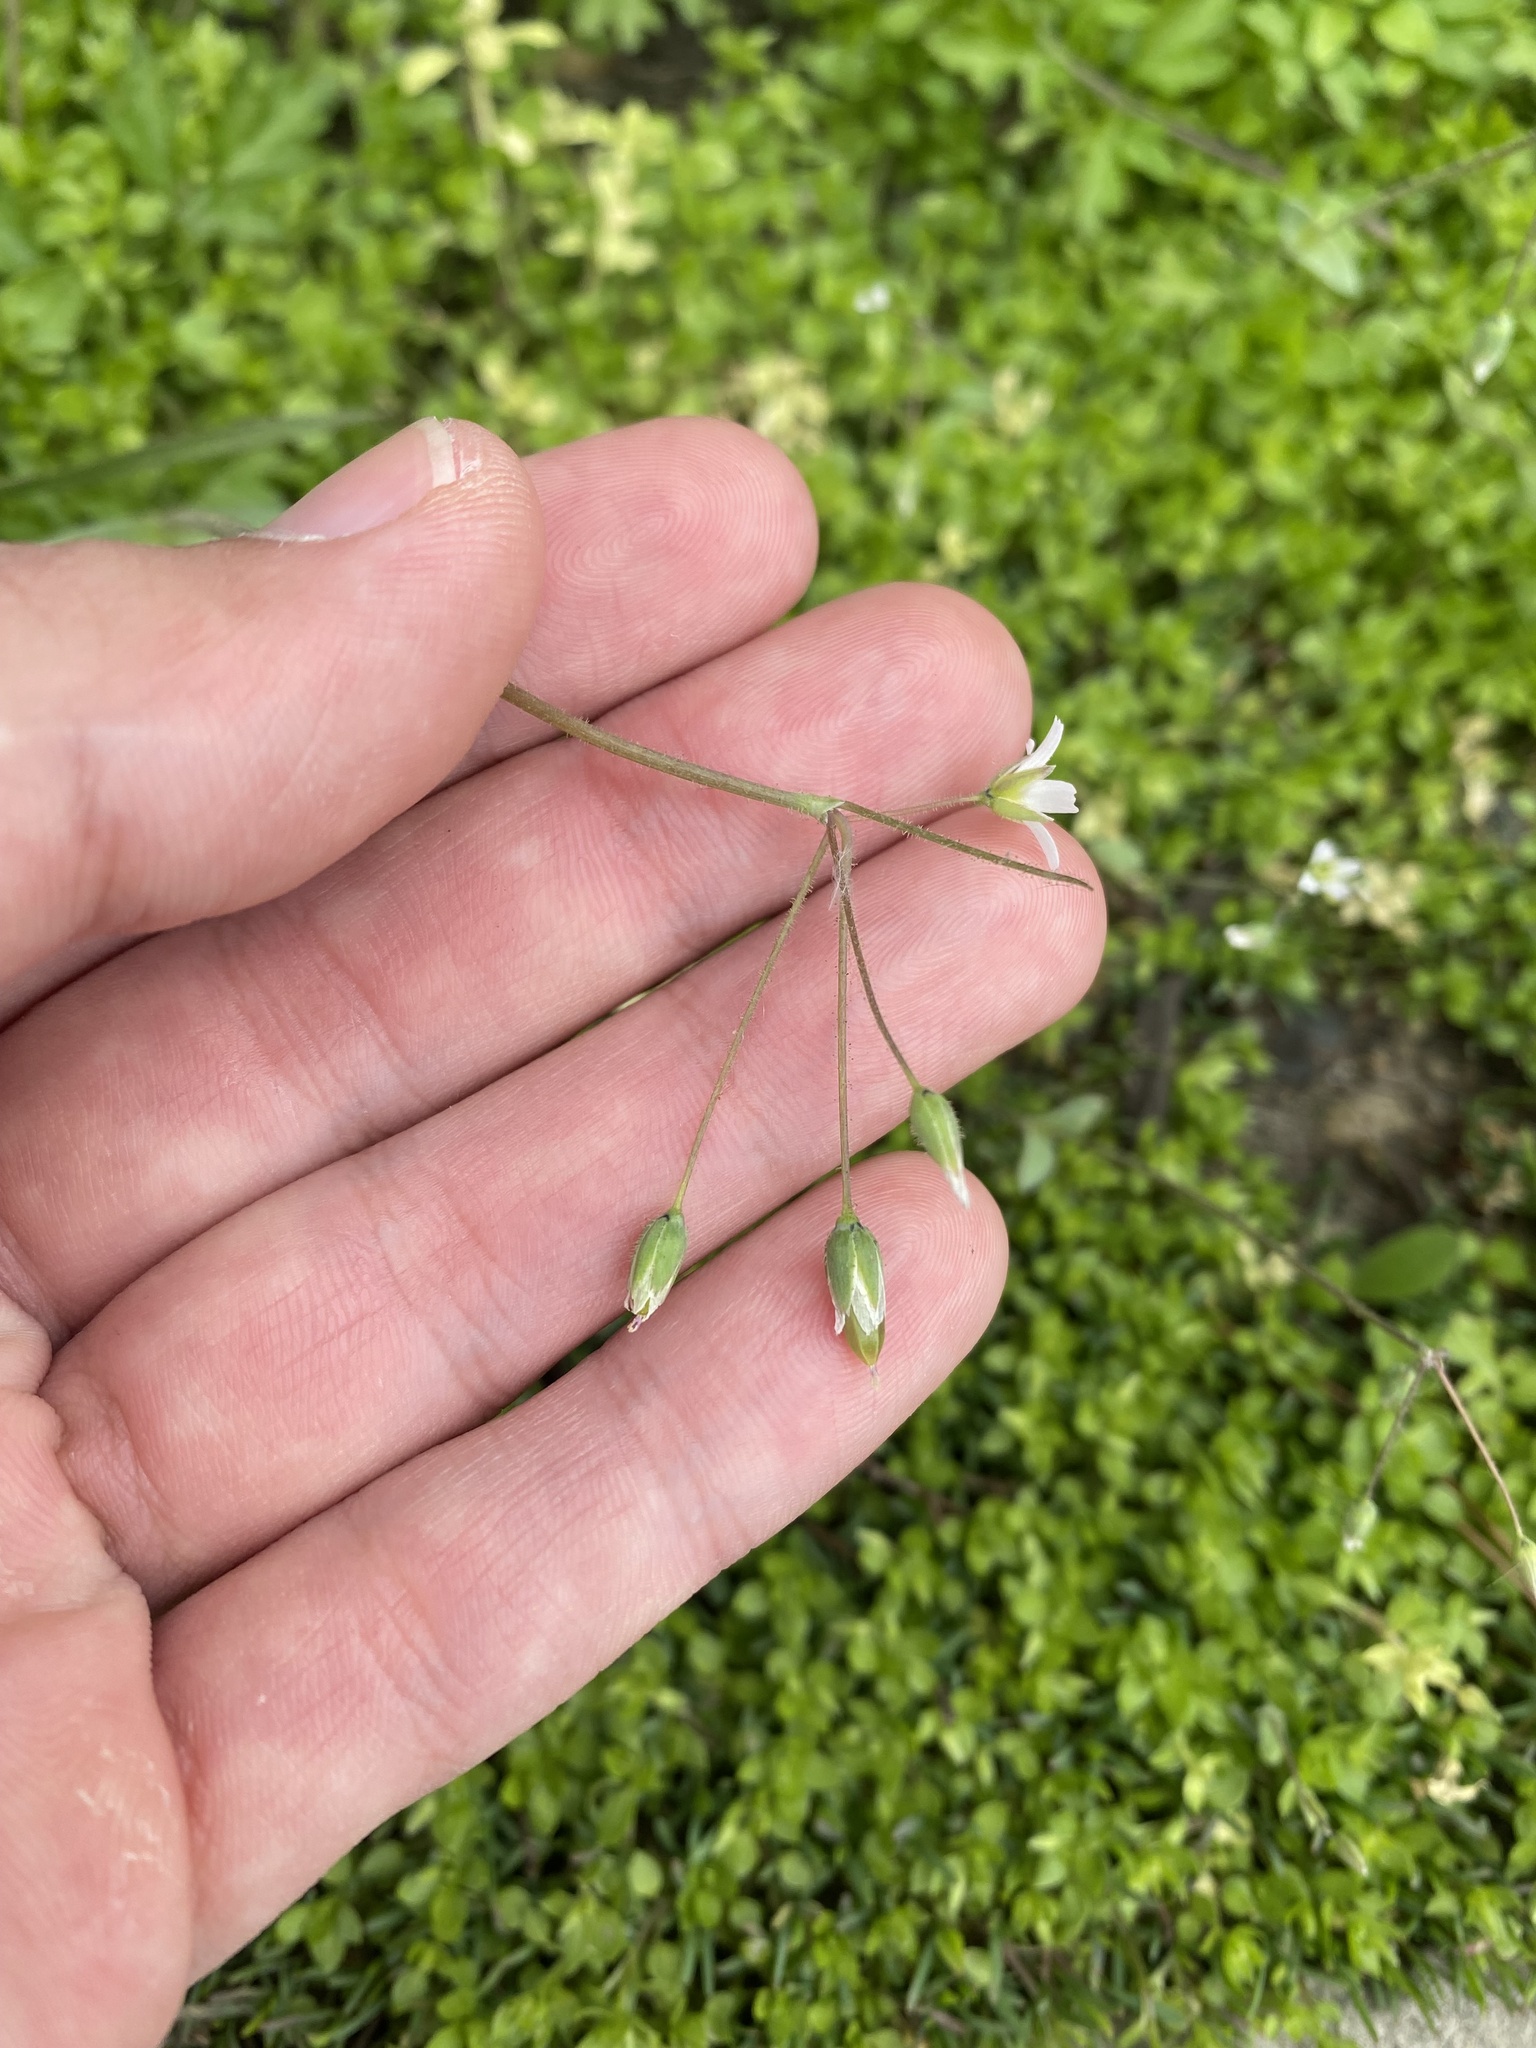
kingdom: Plantae
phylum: Tracheophyta
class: Magnoliopsida
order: Caryophyllales
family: Caryophyllaceae
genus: Holosteum
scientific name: Holosteum umbellatum
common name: Jagged chickweed
